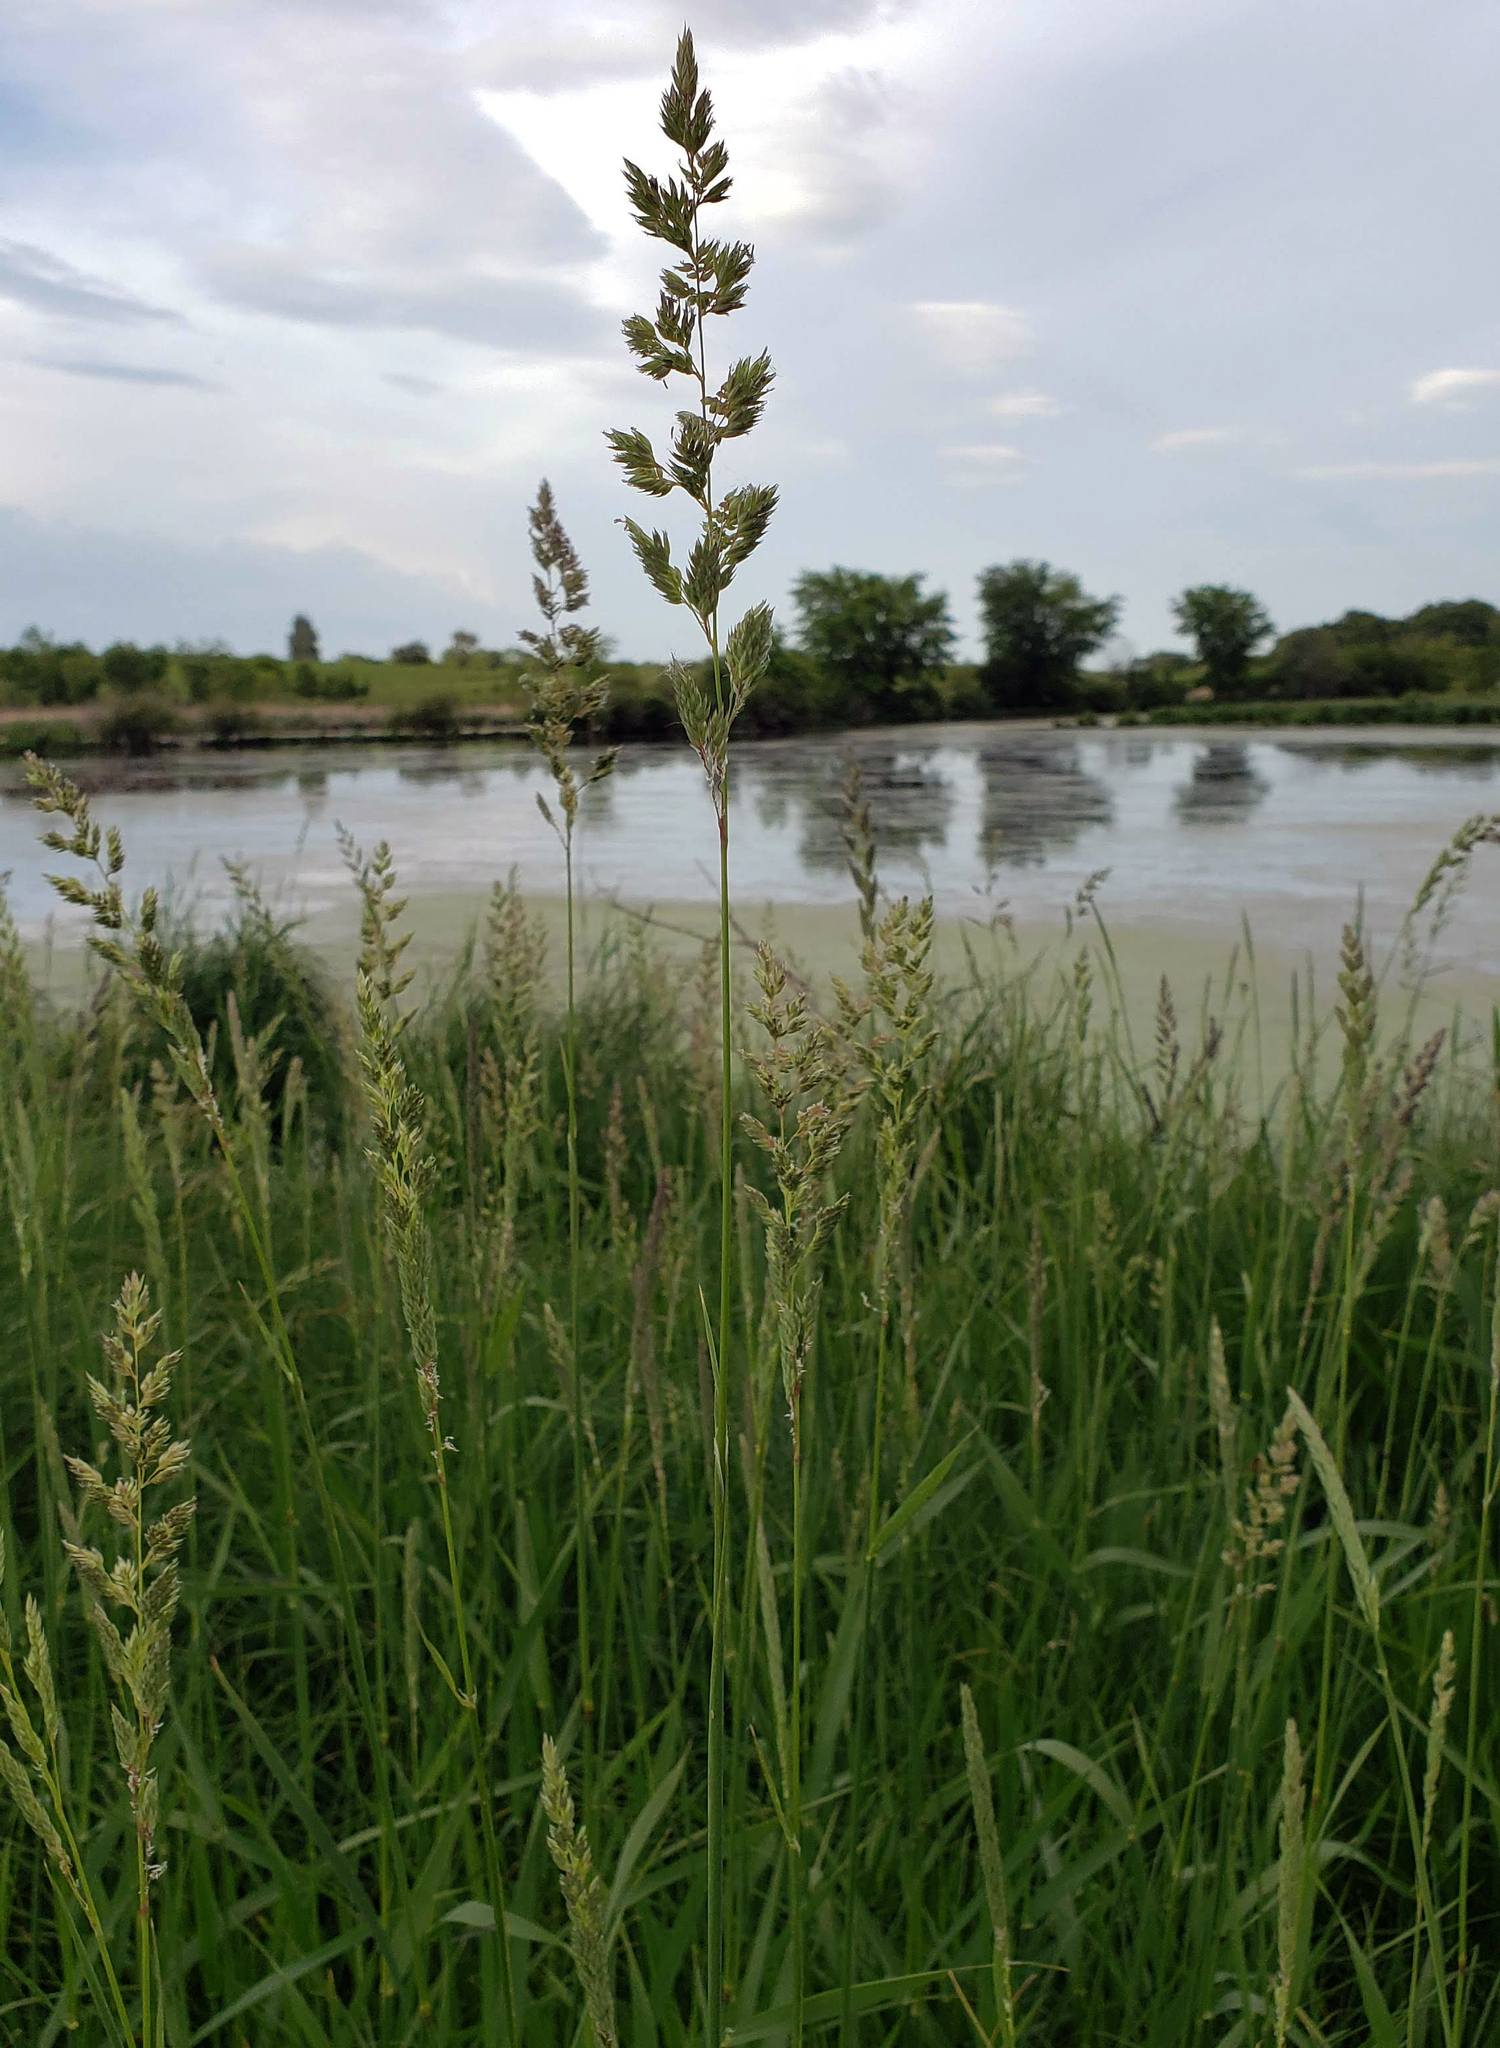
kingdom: Plantae
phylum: Tracheophyta
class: Liliopsida
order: Poales
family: Poaceae
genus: Phalaris
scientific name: Phalaris arundinacea
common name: Reed canary-grass
